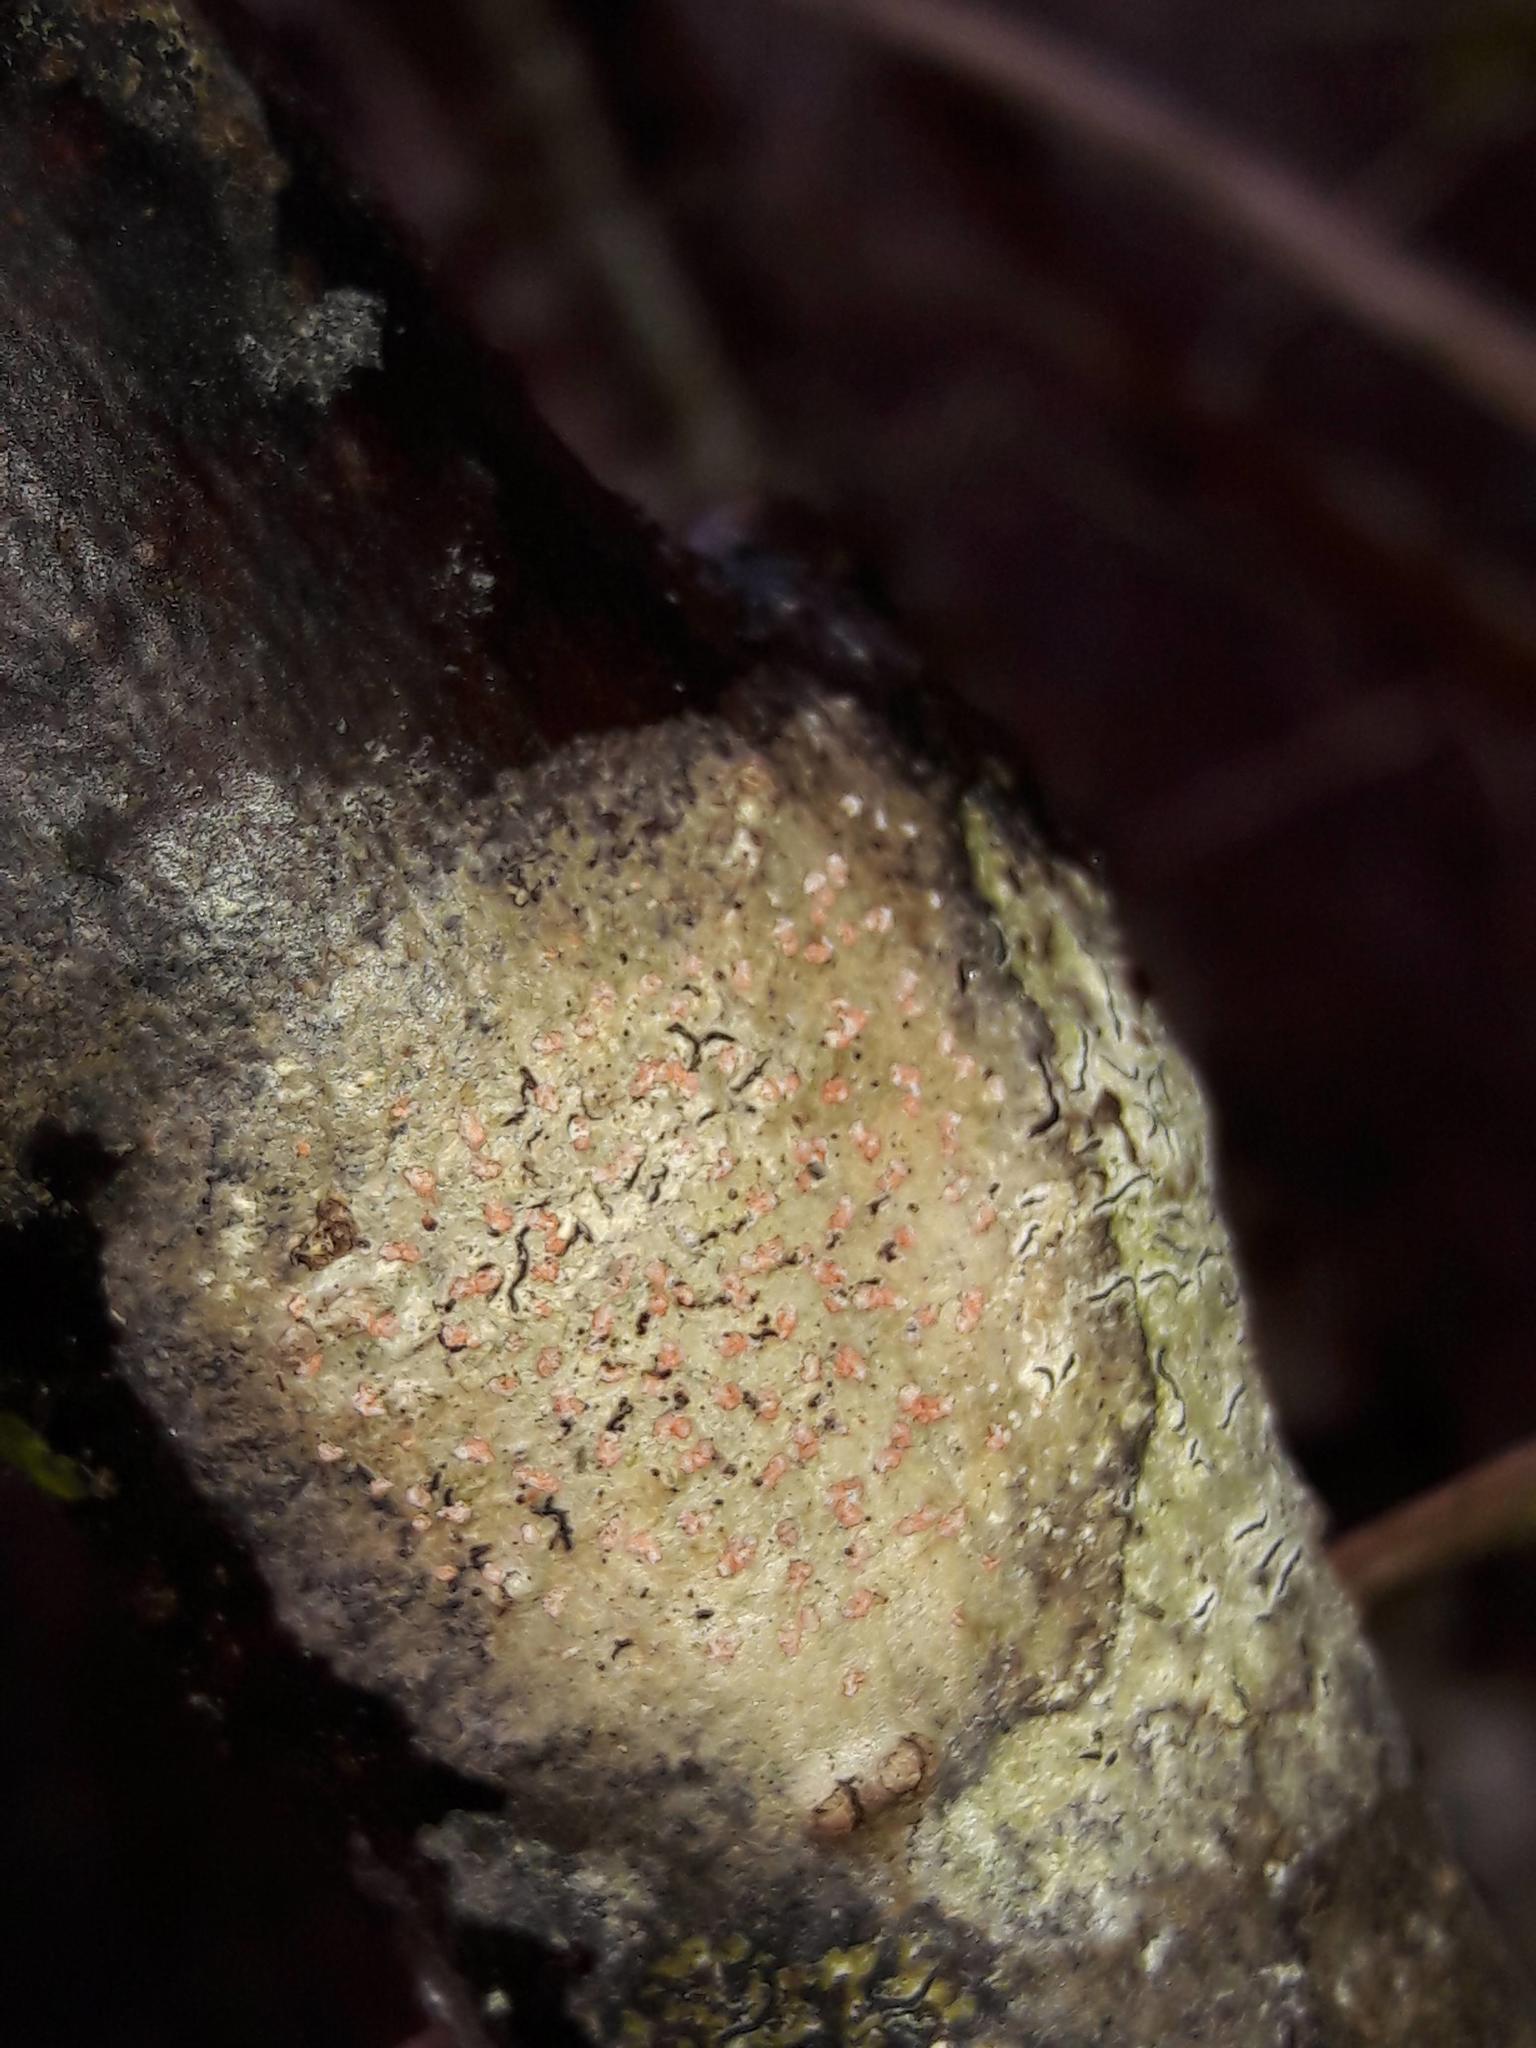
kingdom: Fungi
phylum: Ascomycota
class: Arthoniomycetes
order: Arthoniales
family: Arthoniaceae
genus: Coniocarpon
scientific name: Coniocarpon cinnabarinum
